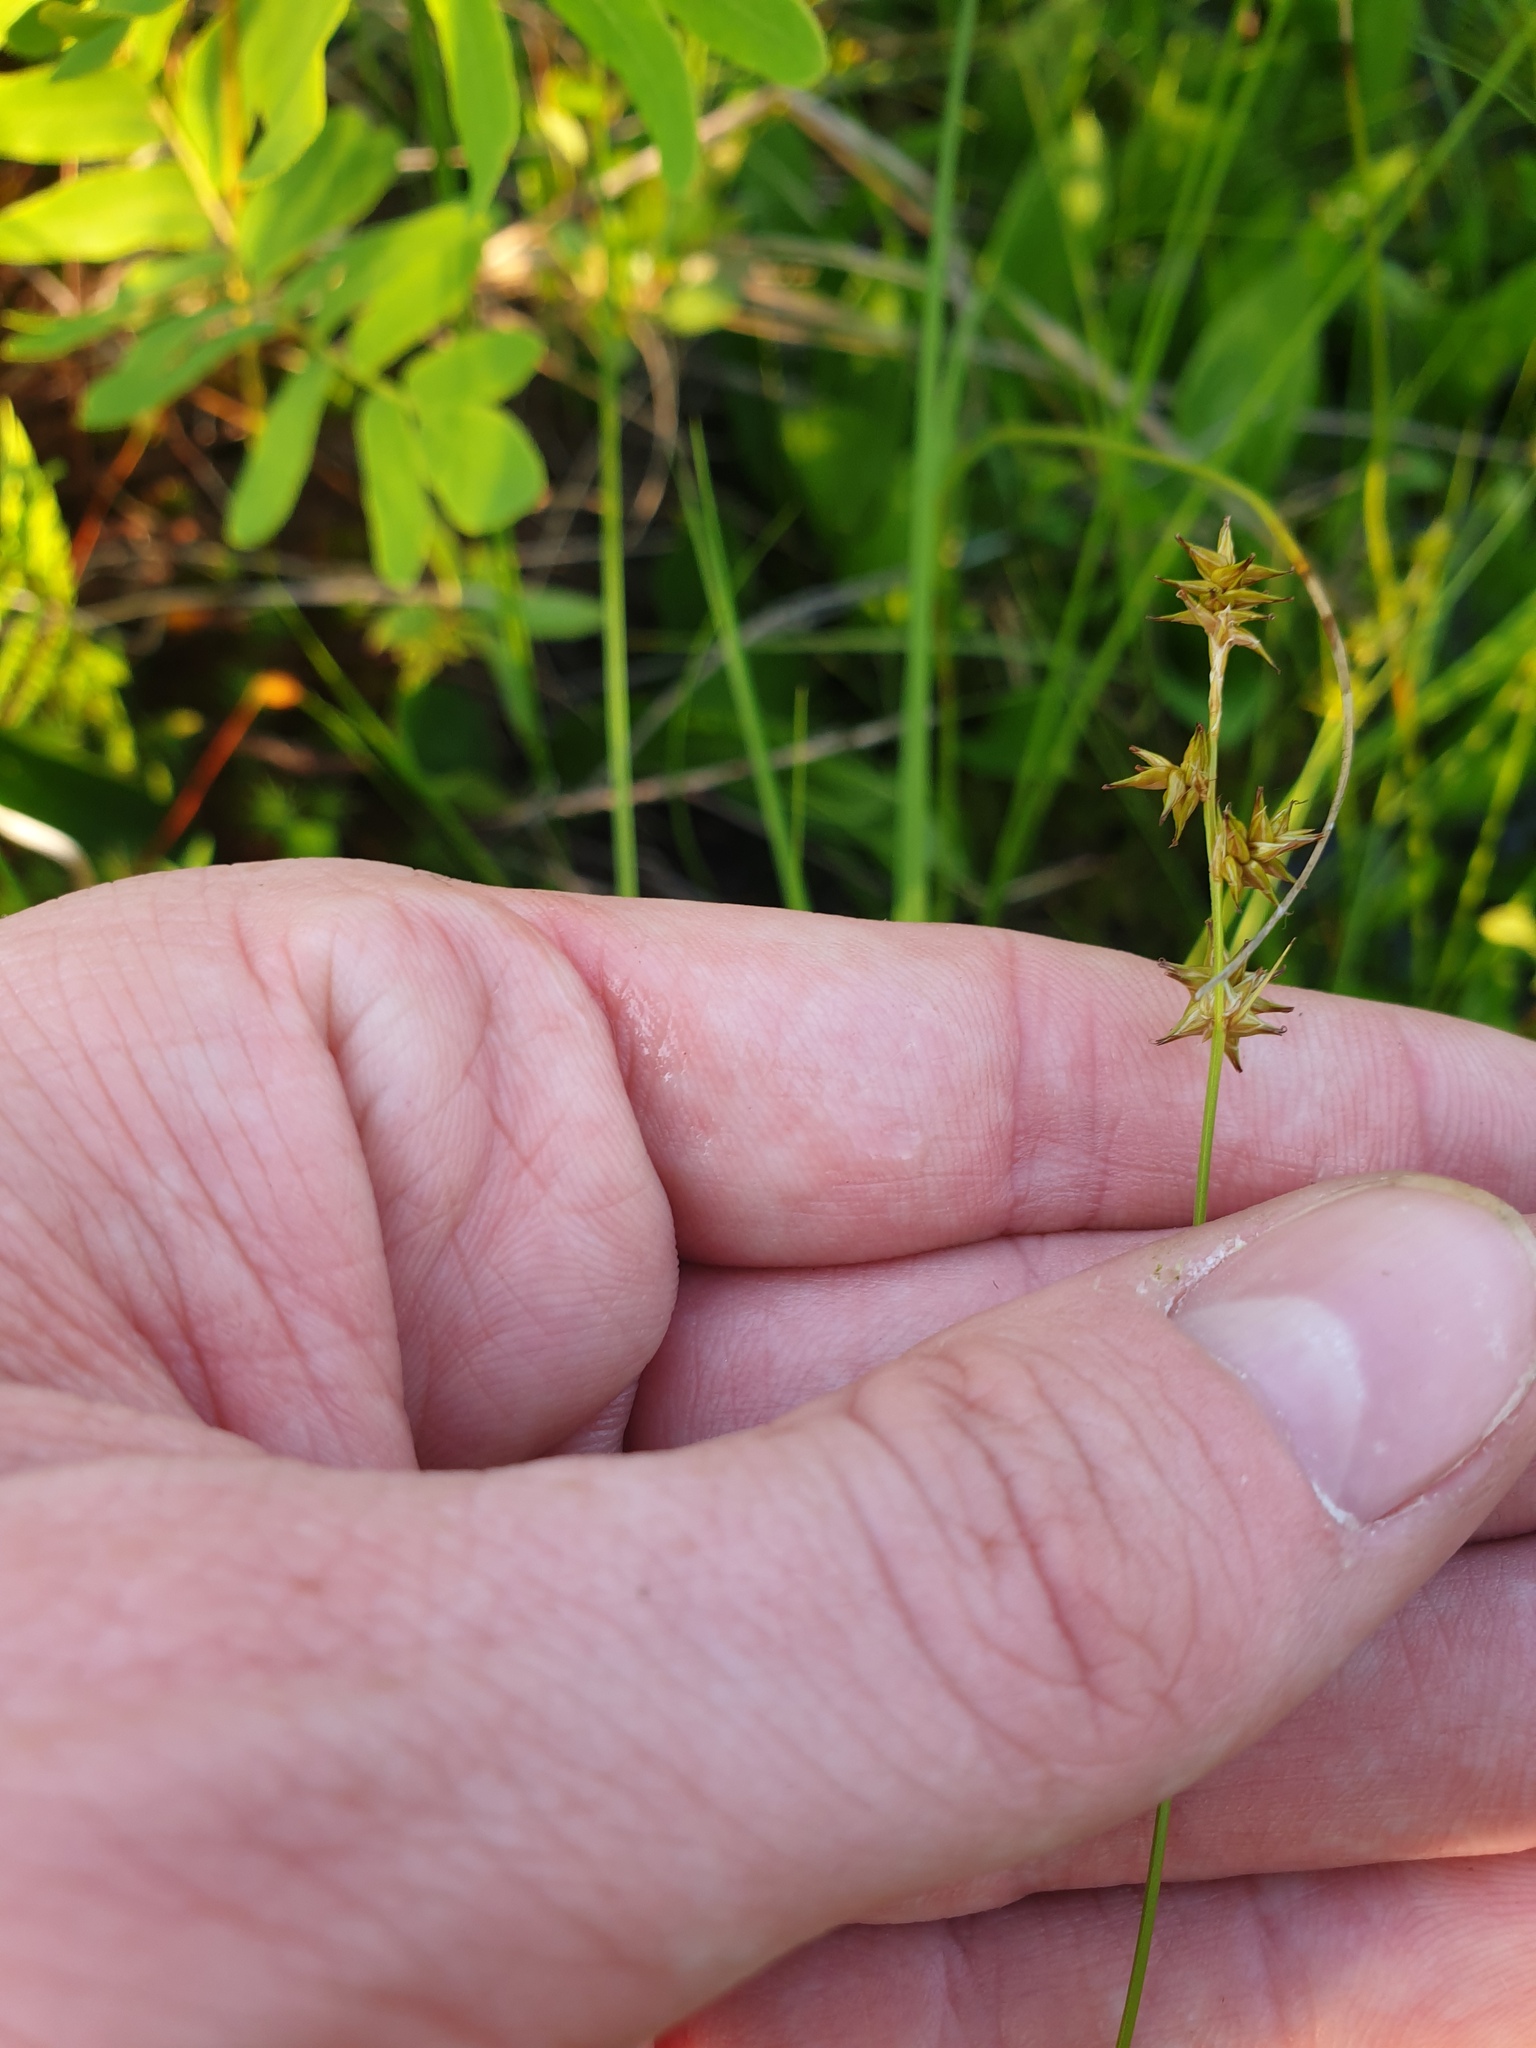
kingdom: Plantae
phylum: Tracheophyta
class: Liliopsida
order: Poales
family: Cyperaceae
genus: Carex
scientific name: Carex echinata
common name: Star sedge
